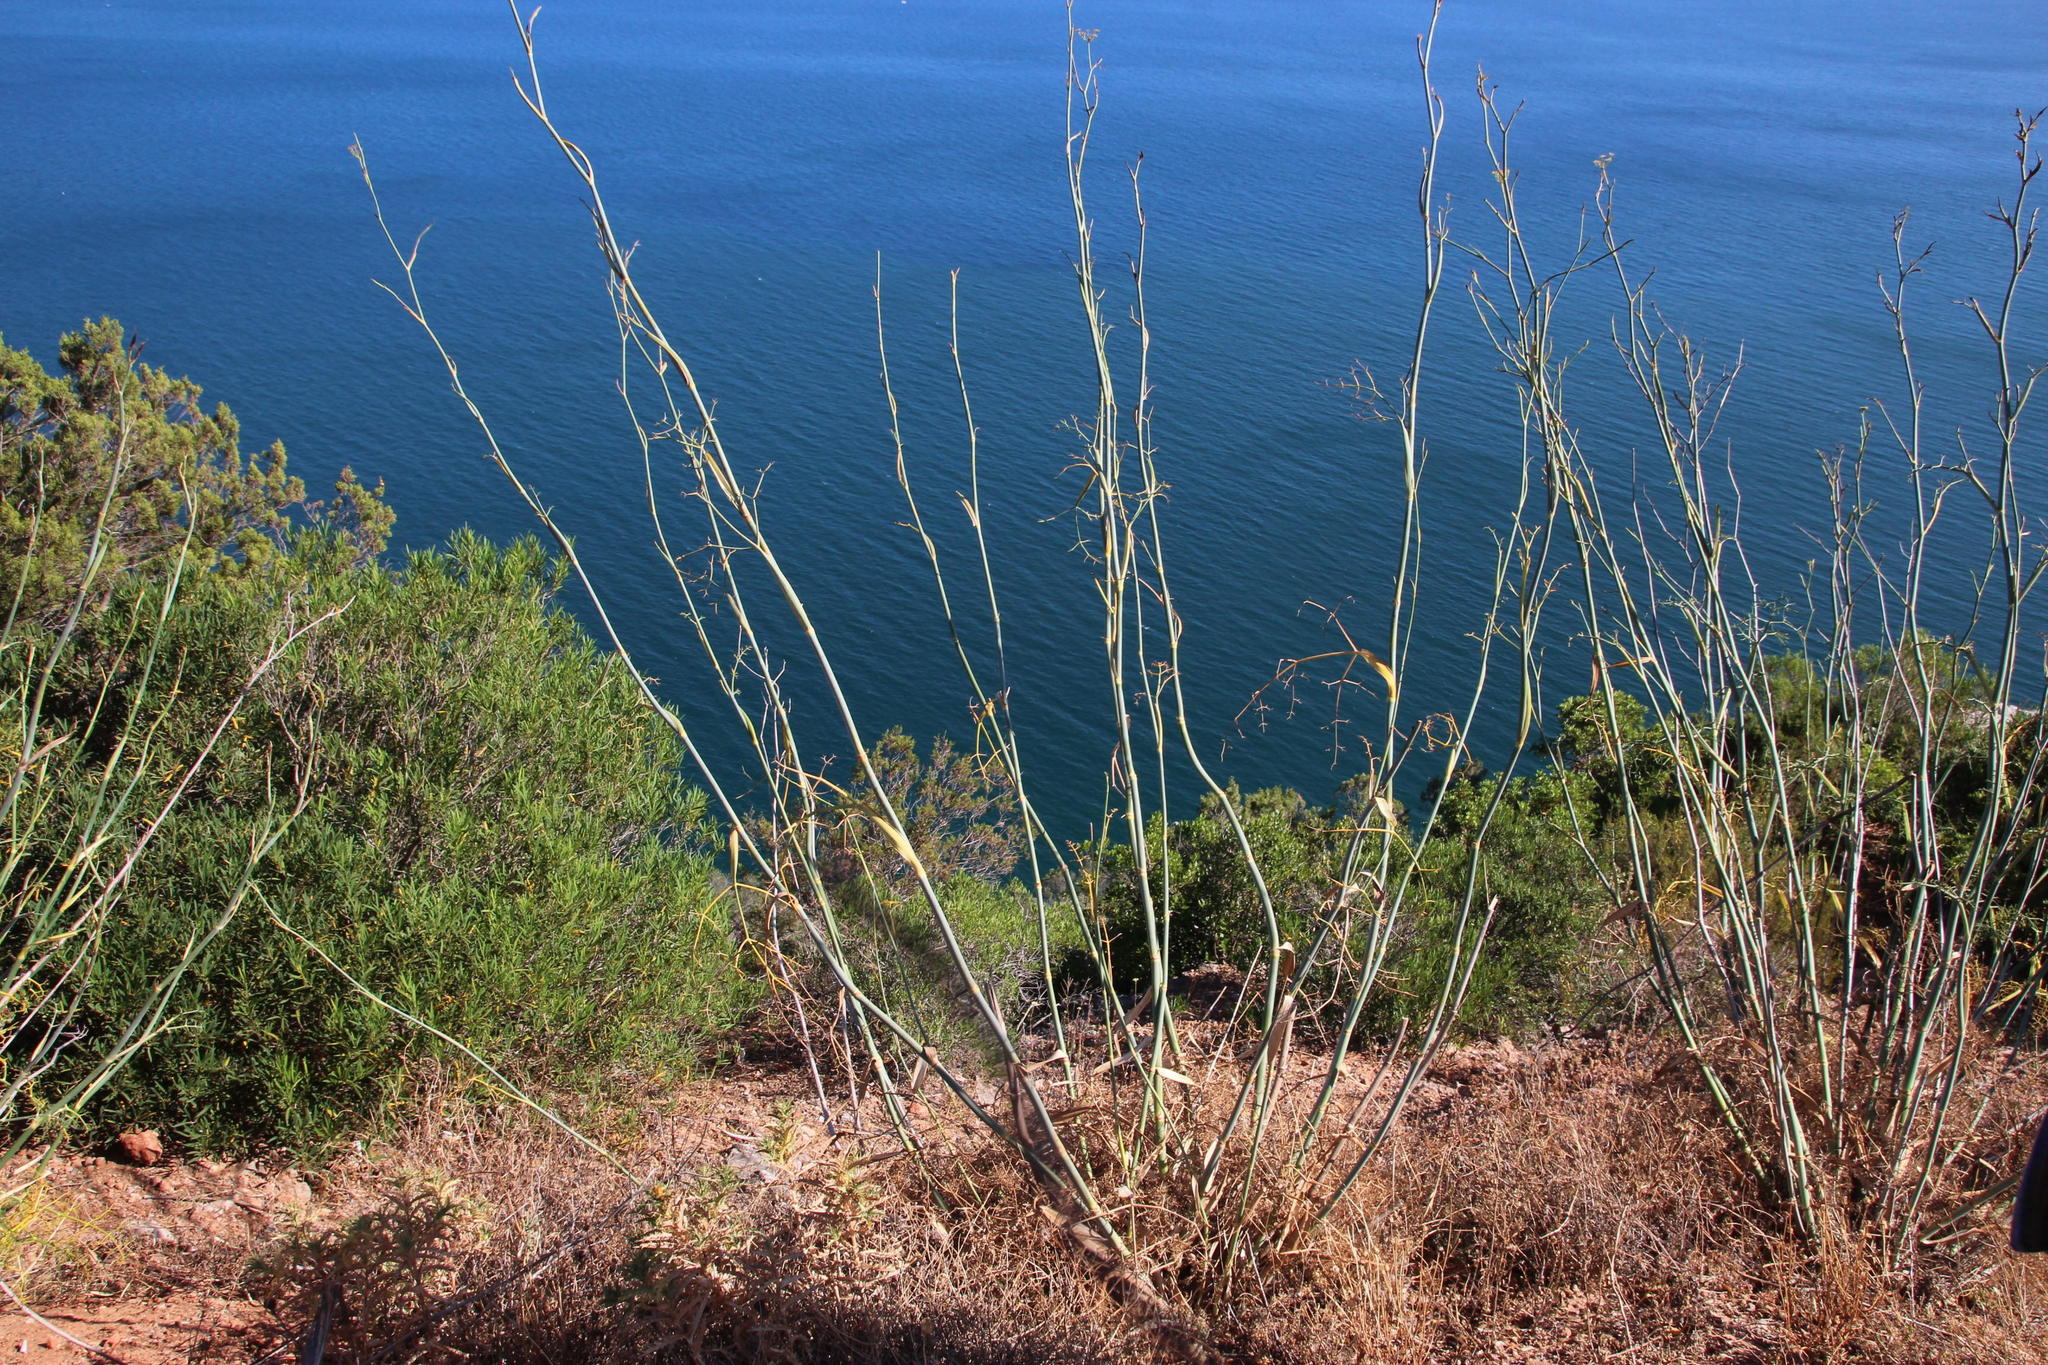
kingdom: Plantae
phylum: Tracheophyta
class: Magnoliopsida
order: Apiales
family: Apiaceae
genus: Foeniculum
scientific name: Foeniculum vulgare
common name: Fennel
